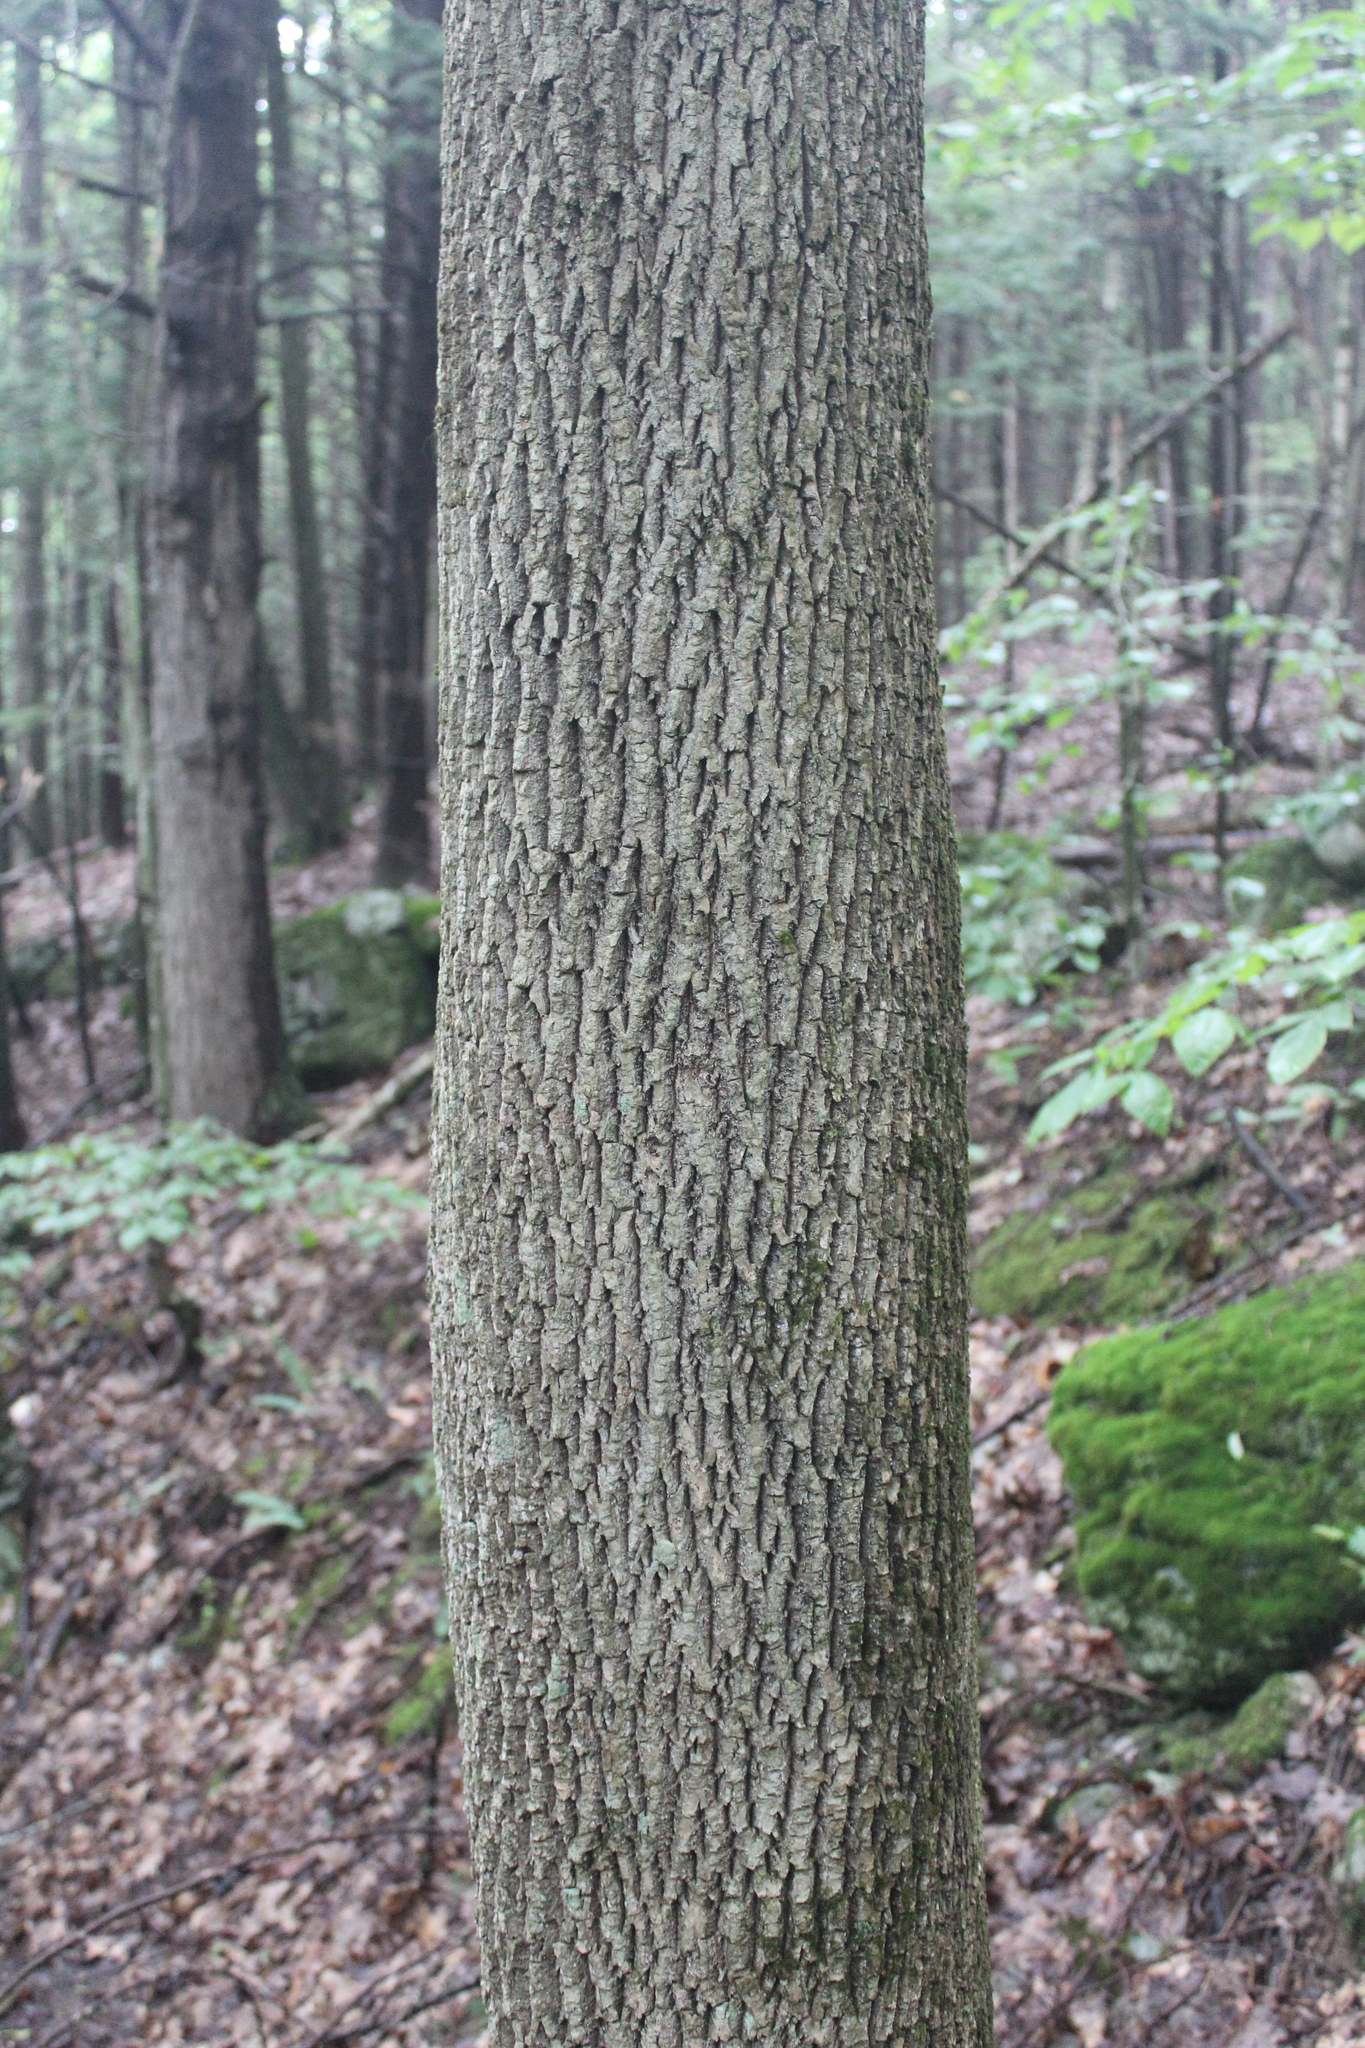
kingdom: Plantae
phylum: Tracheophyta
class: Magnoliopsida
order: Lamiales
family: Oleaceae
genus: Fraxinus
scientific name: Fraxinus americana
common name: White ash
